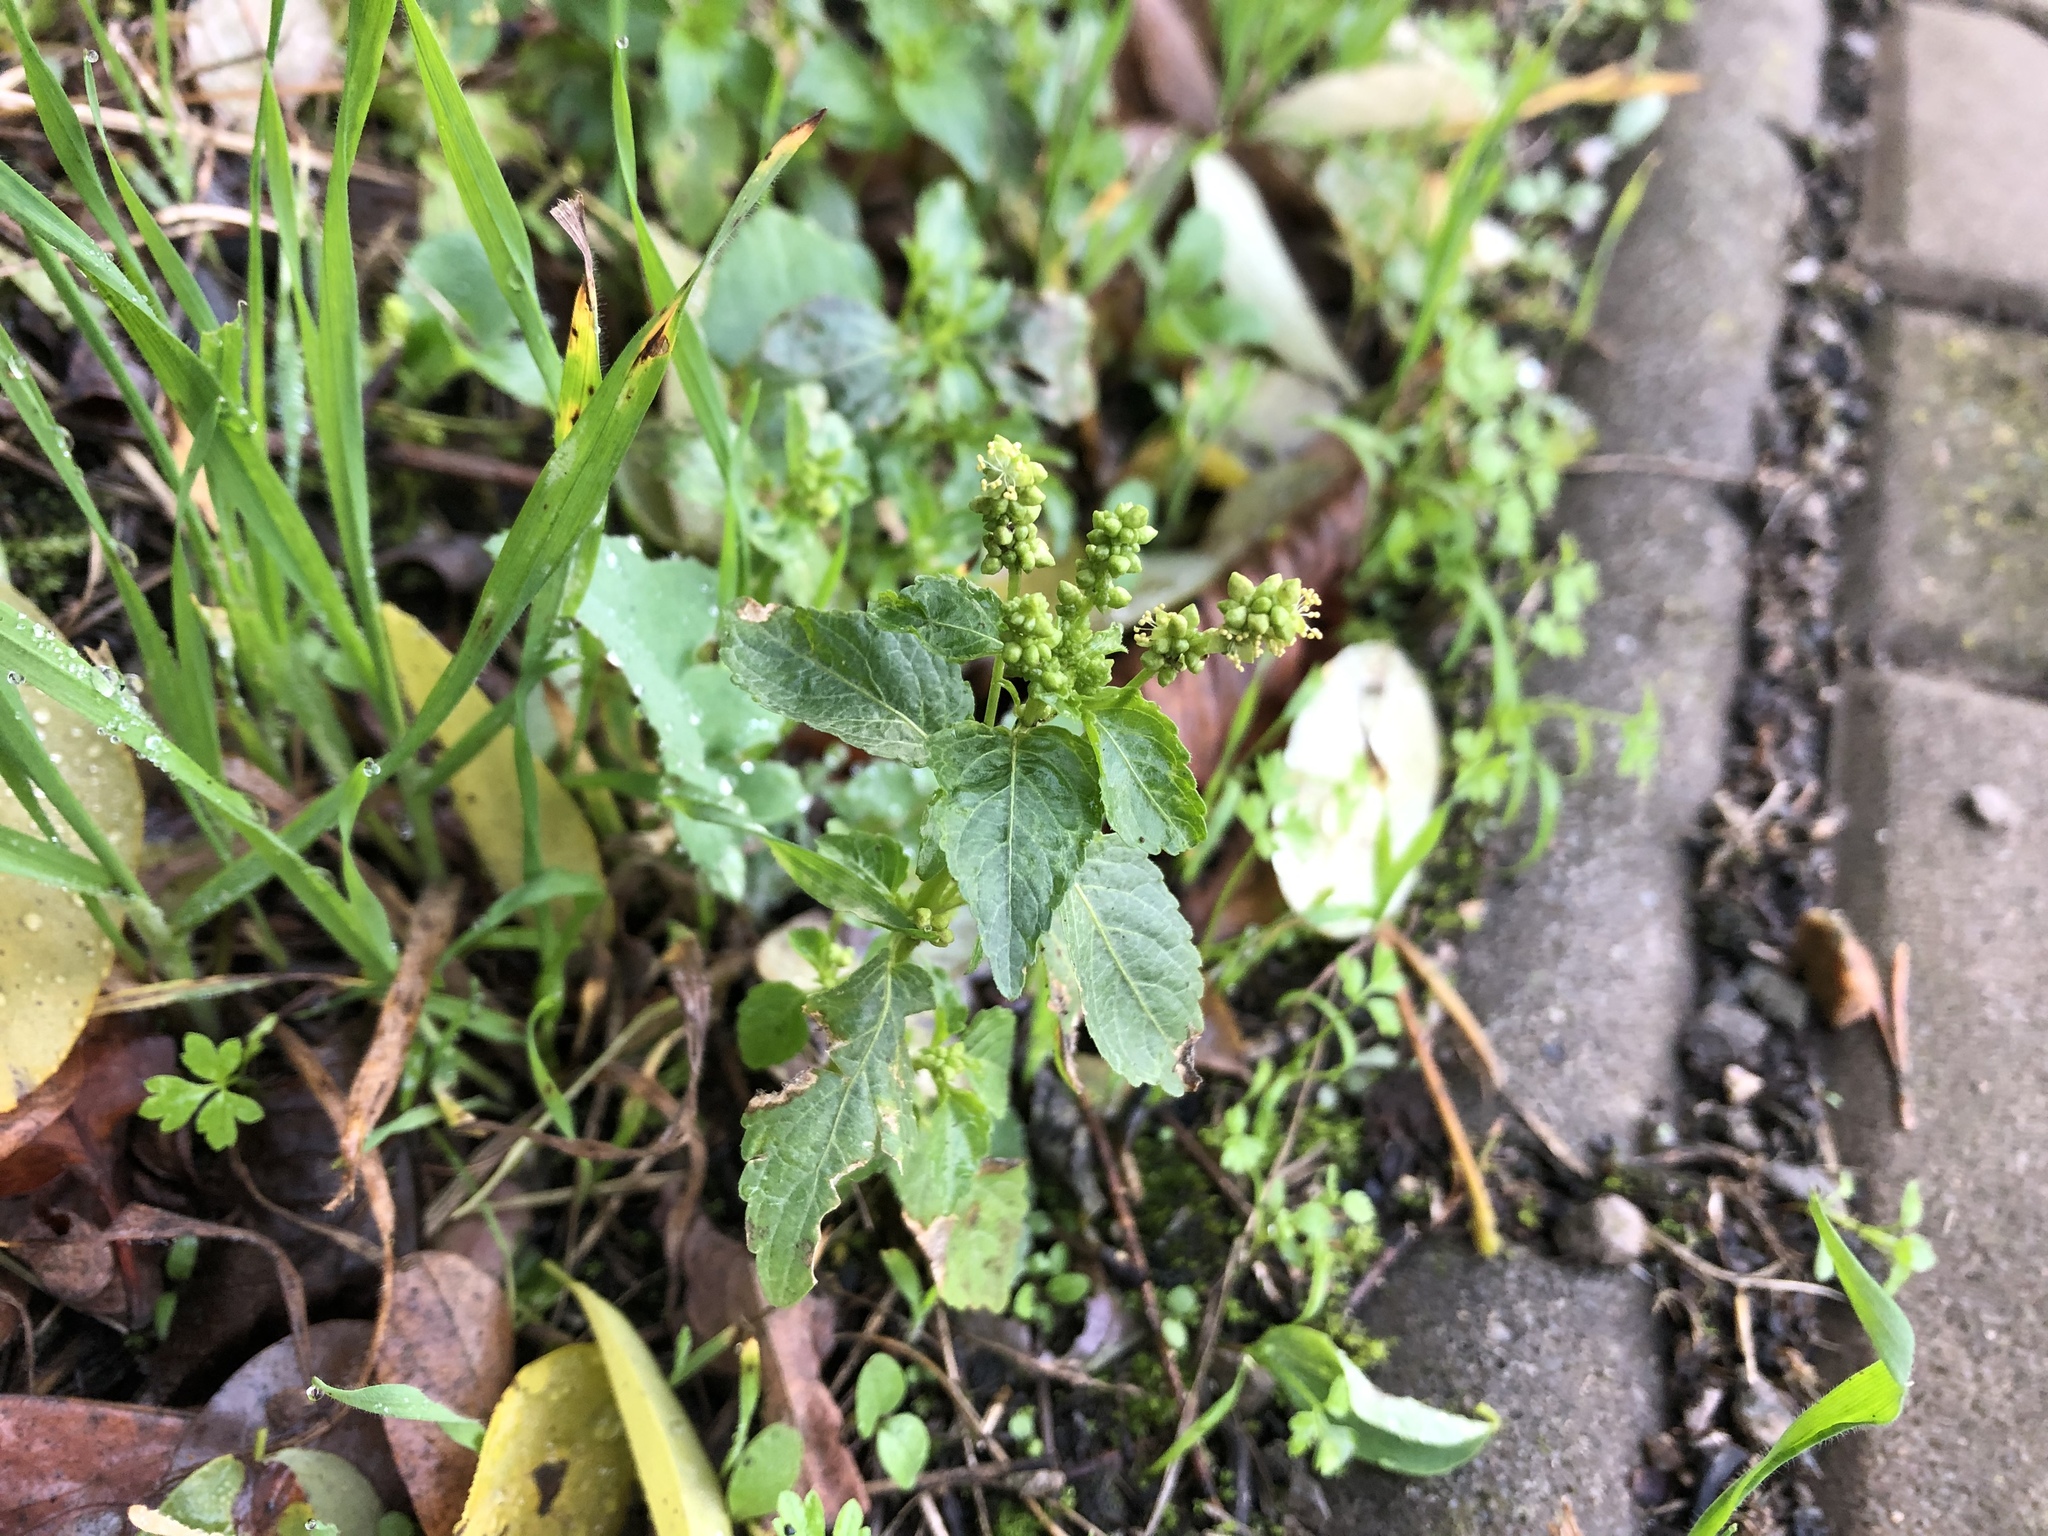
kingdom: Plantae
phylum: Tracheophyta
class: Magnoliopsida
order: Malpighiales
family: Euphorbiaceae
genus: Mercurialis
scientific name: Mercurialis annua
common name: Annual mercury
